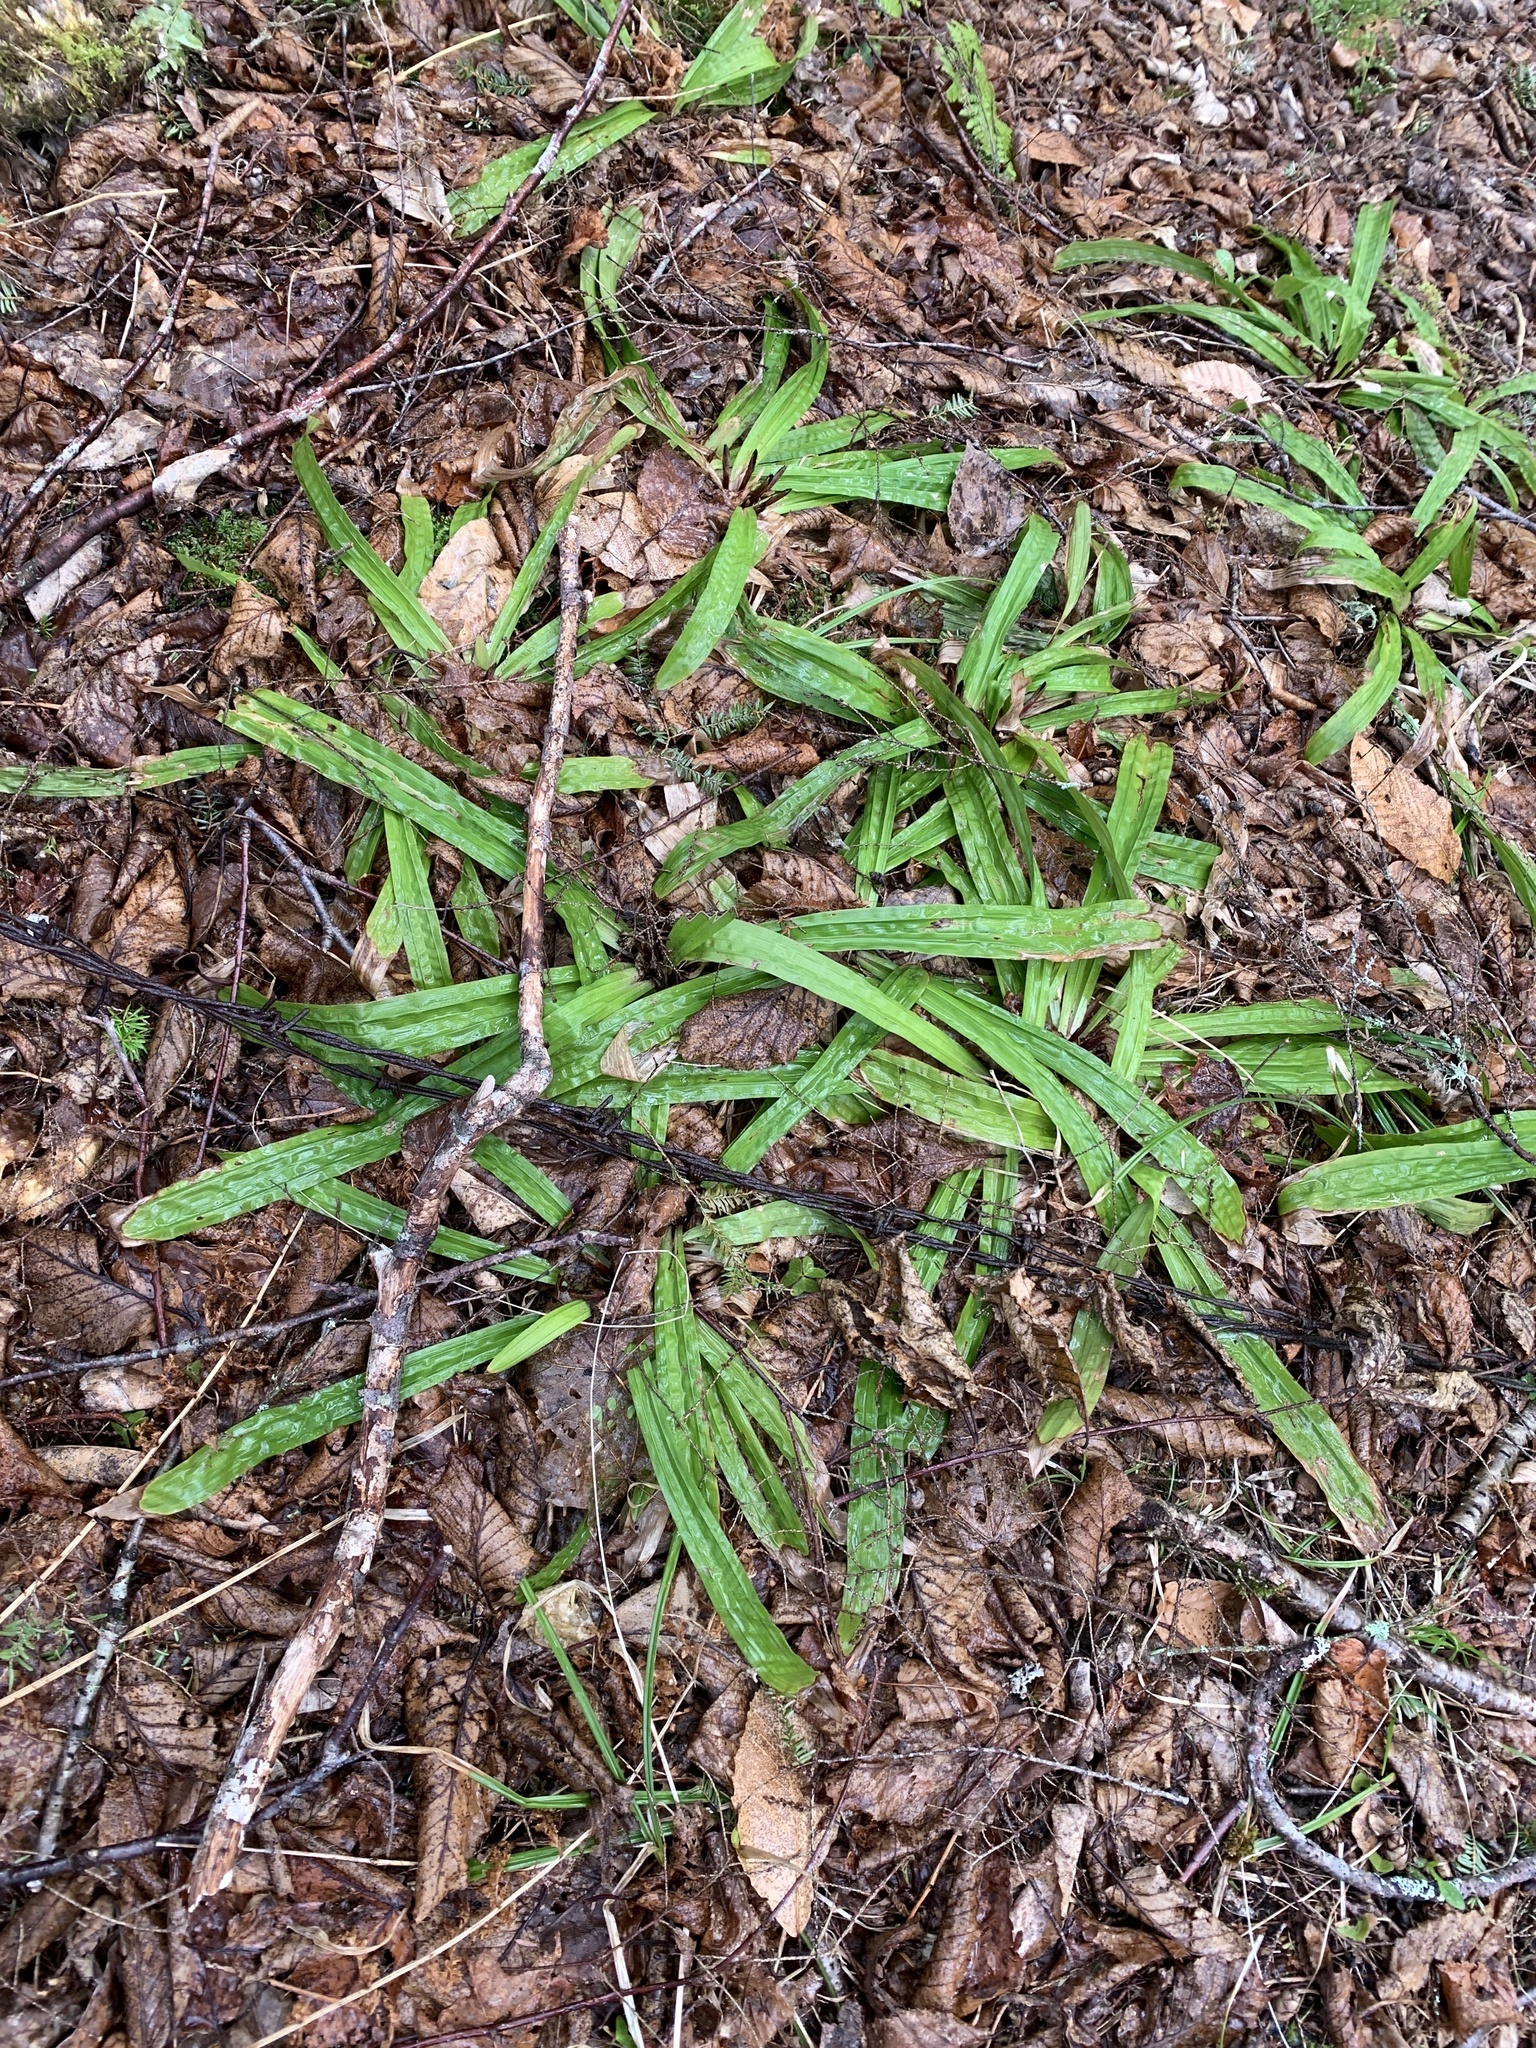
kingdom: Plantae
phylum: Tracheophyta
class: Liliopsida
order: Poales
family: Cyperaceae
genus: Carex
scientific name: Carex plantaginea
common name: Plantain-leaved sedge
